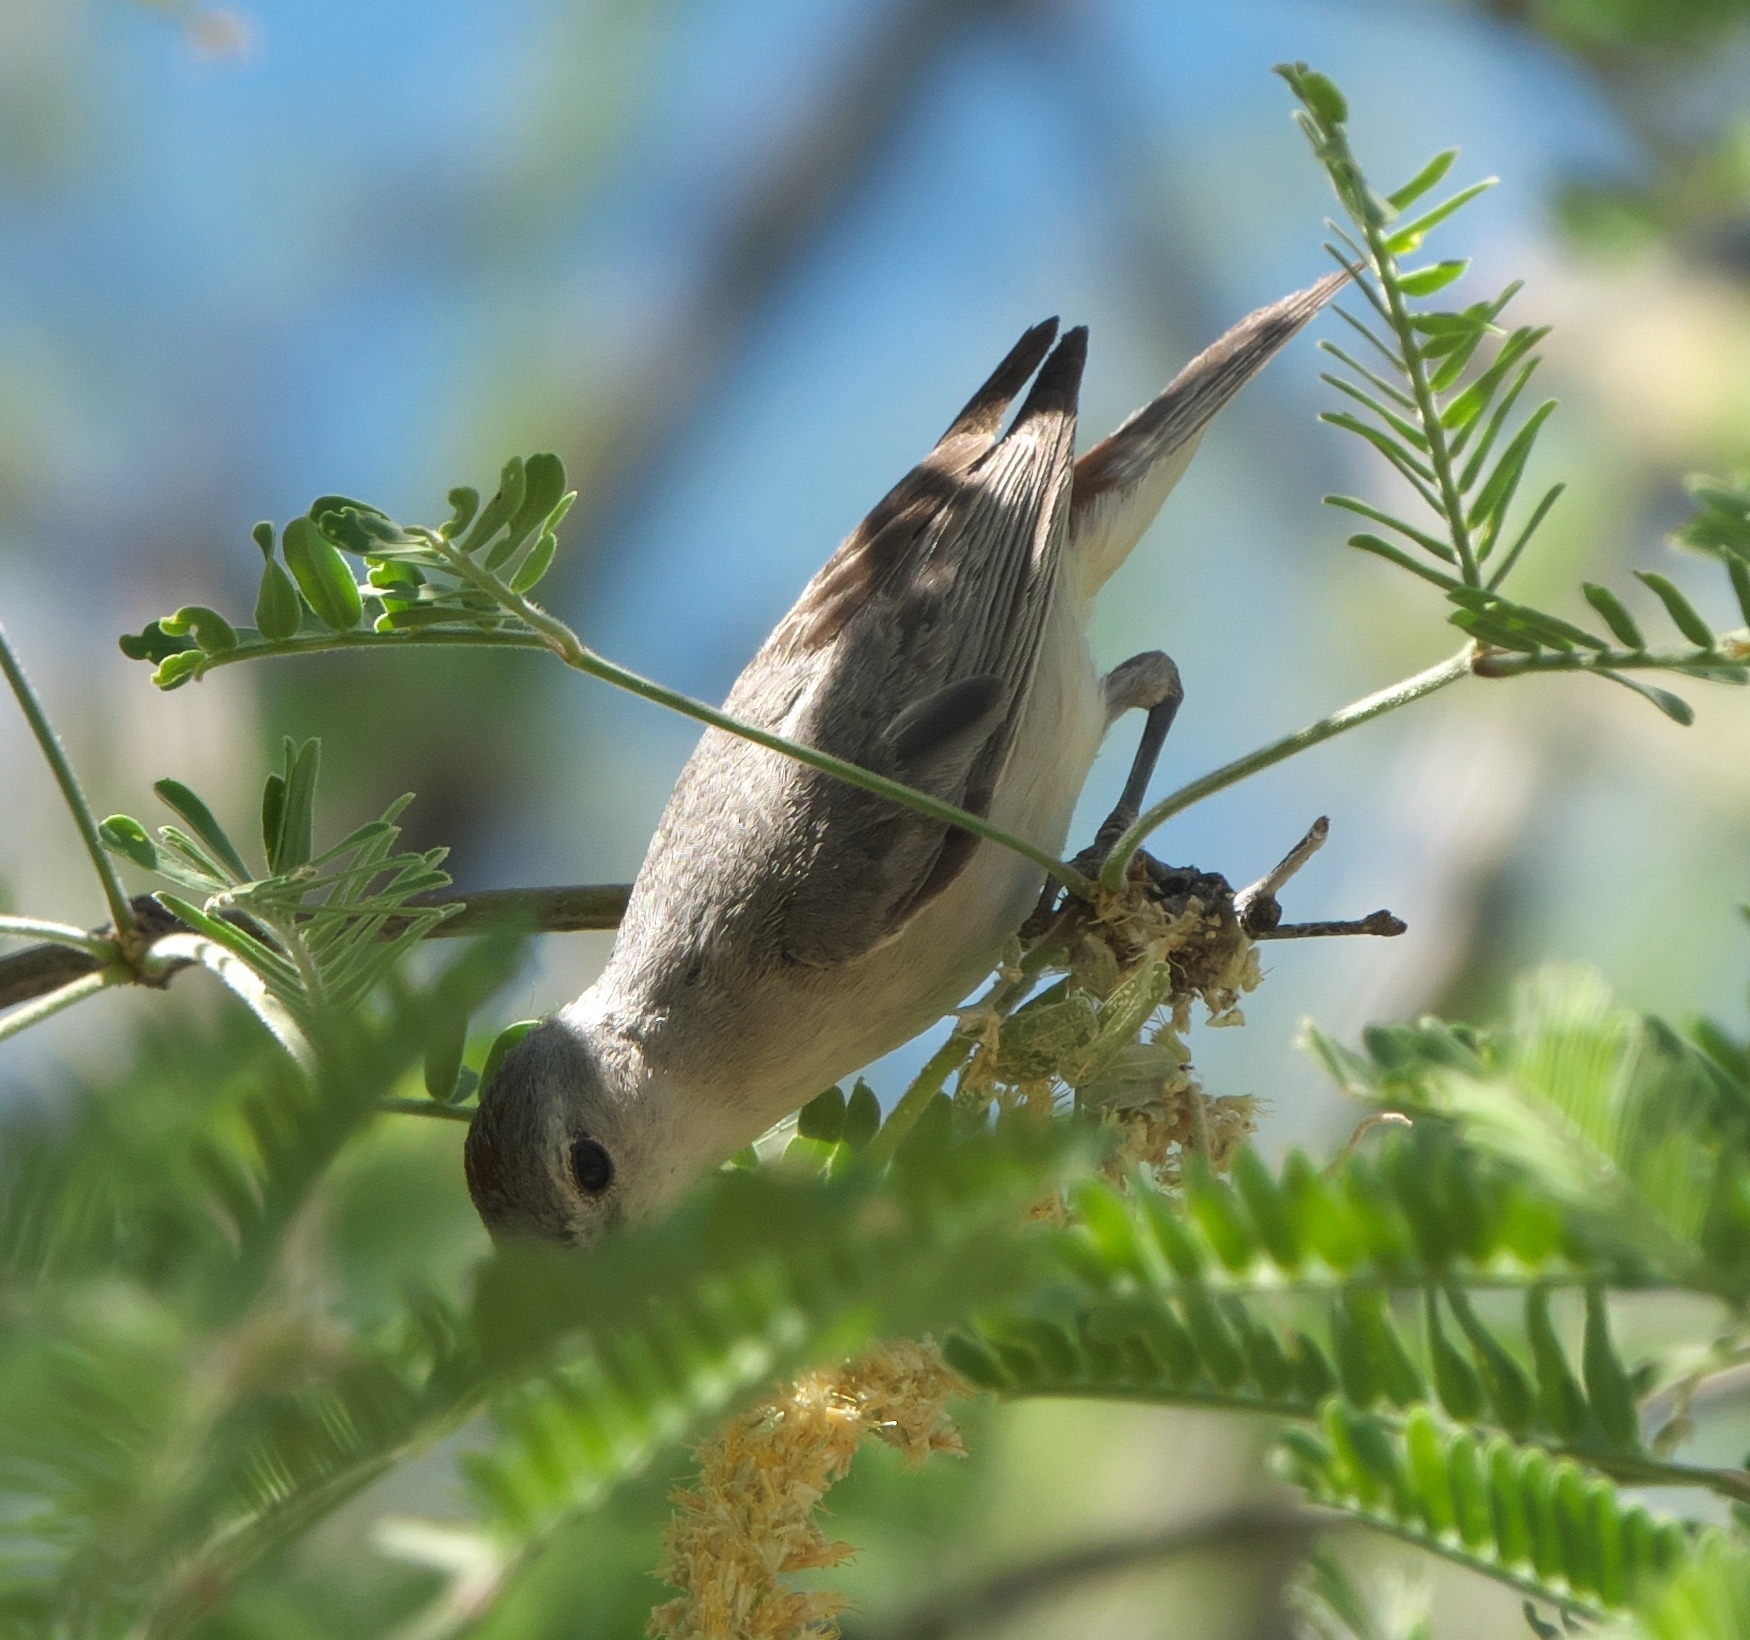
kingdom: Animalia
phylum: Chordata
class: Aves
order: Passeriformes
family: Parulidae
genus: Leiothlypis
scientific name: Leiothlypis luciae
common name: Lucy's warbler
